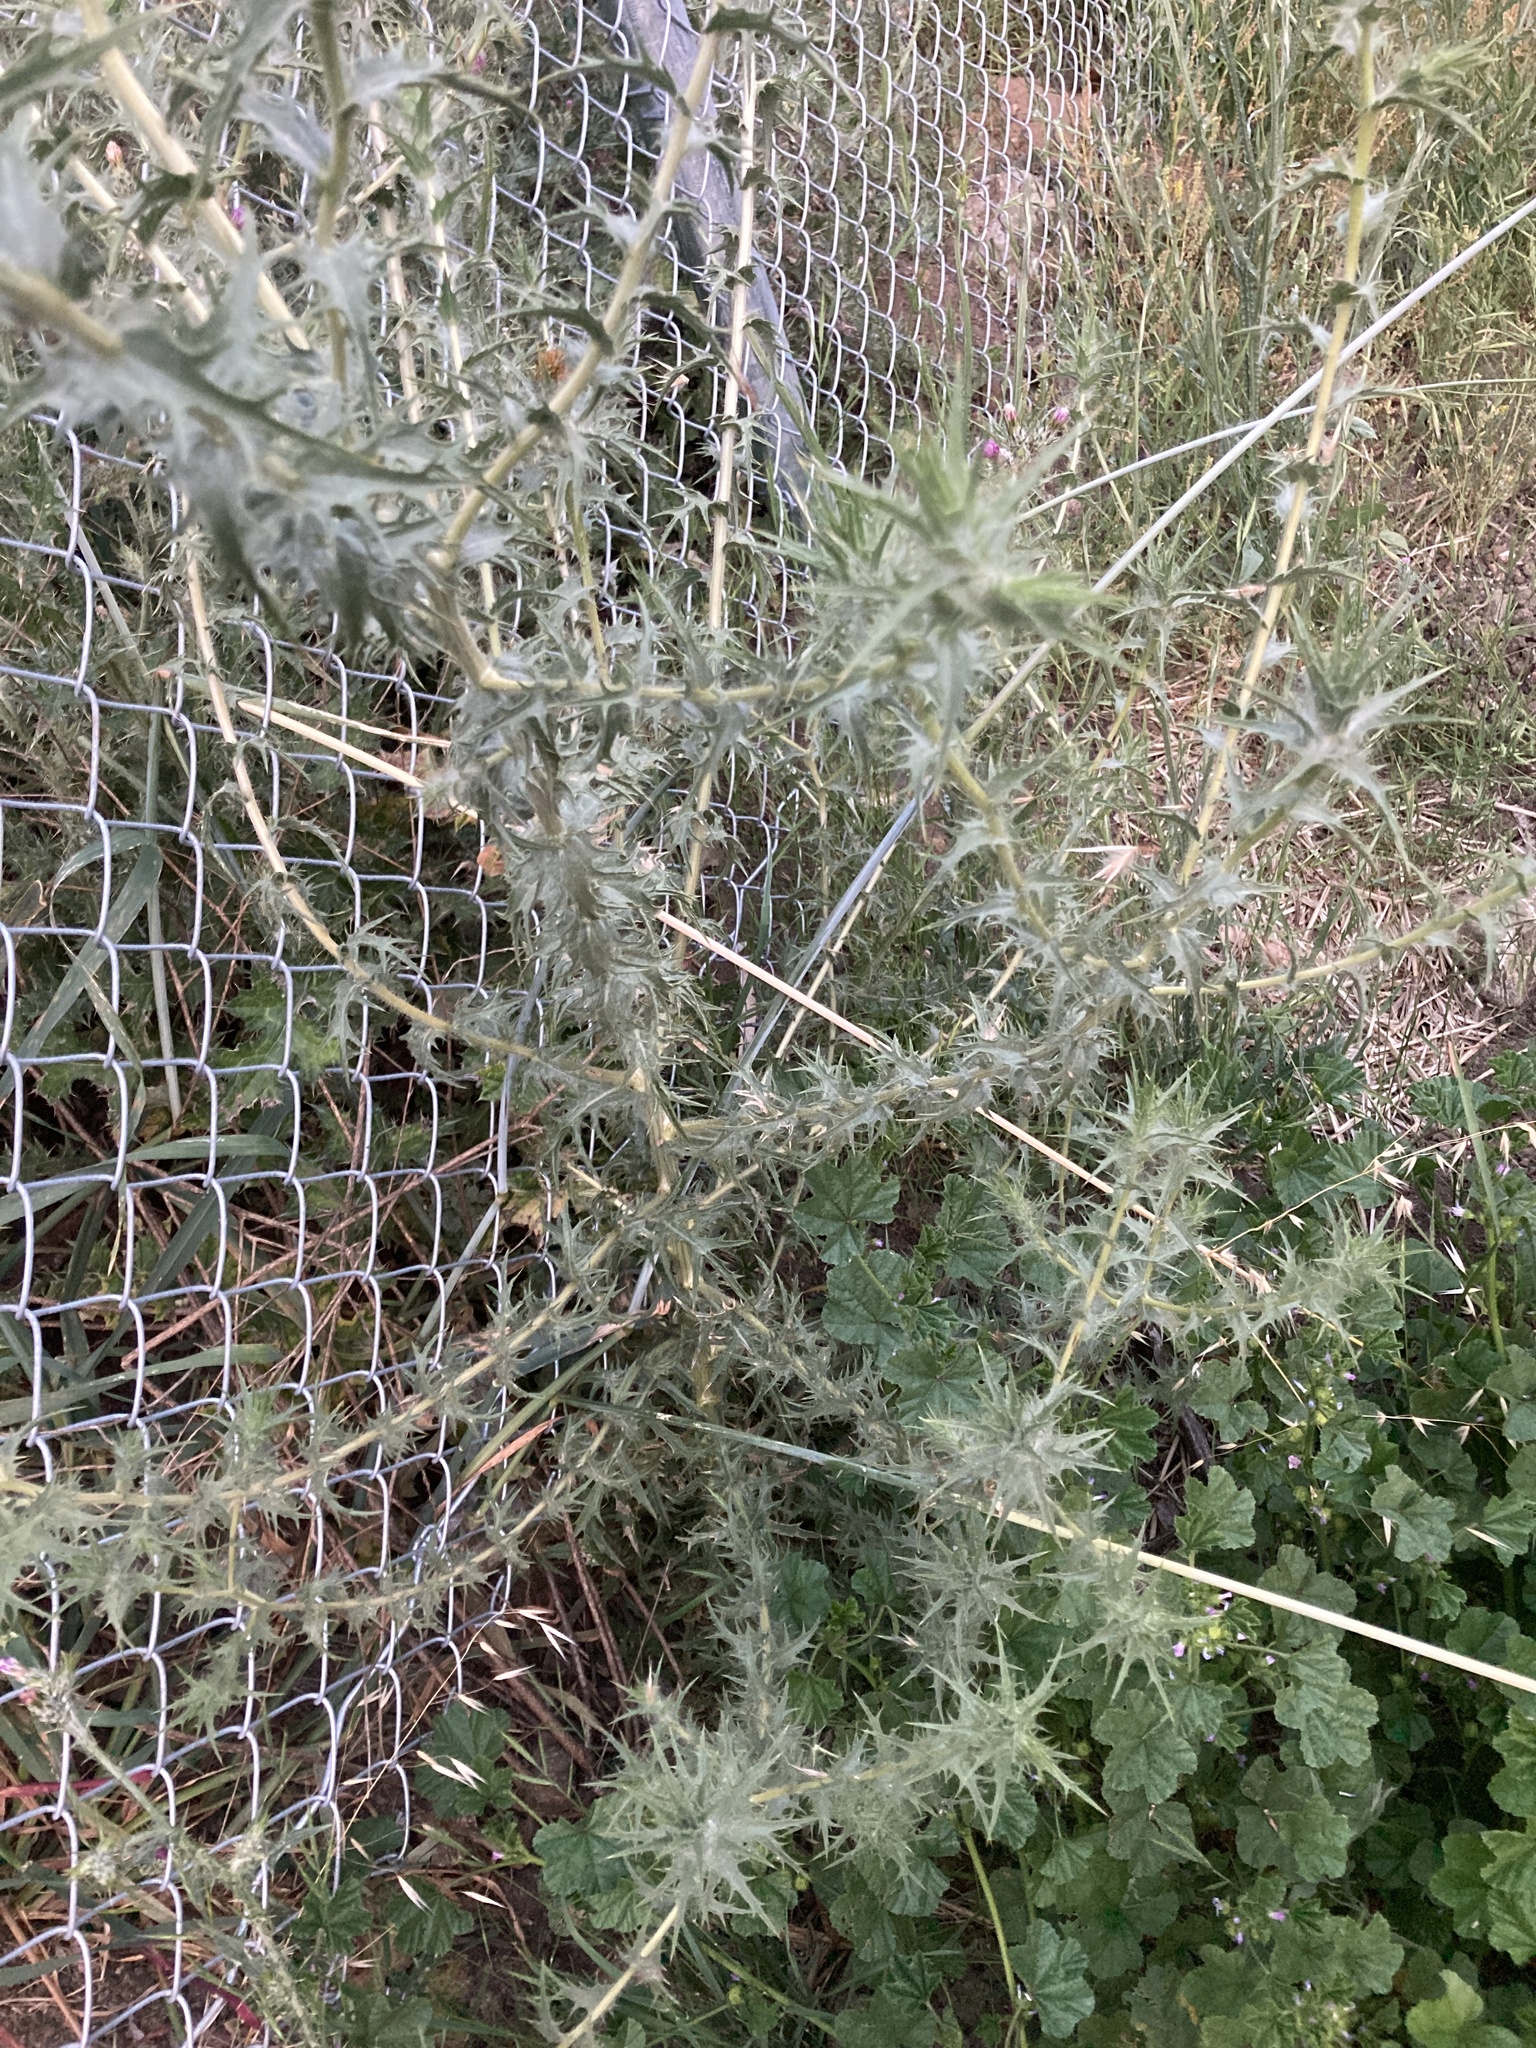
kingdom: Plantae
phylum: Tracheophyta
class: Magnoliopsida
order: Asterales
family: Asteraceae
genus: Carthamus
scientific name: Carthamus lanatus
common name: Downy safflower
